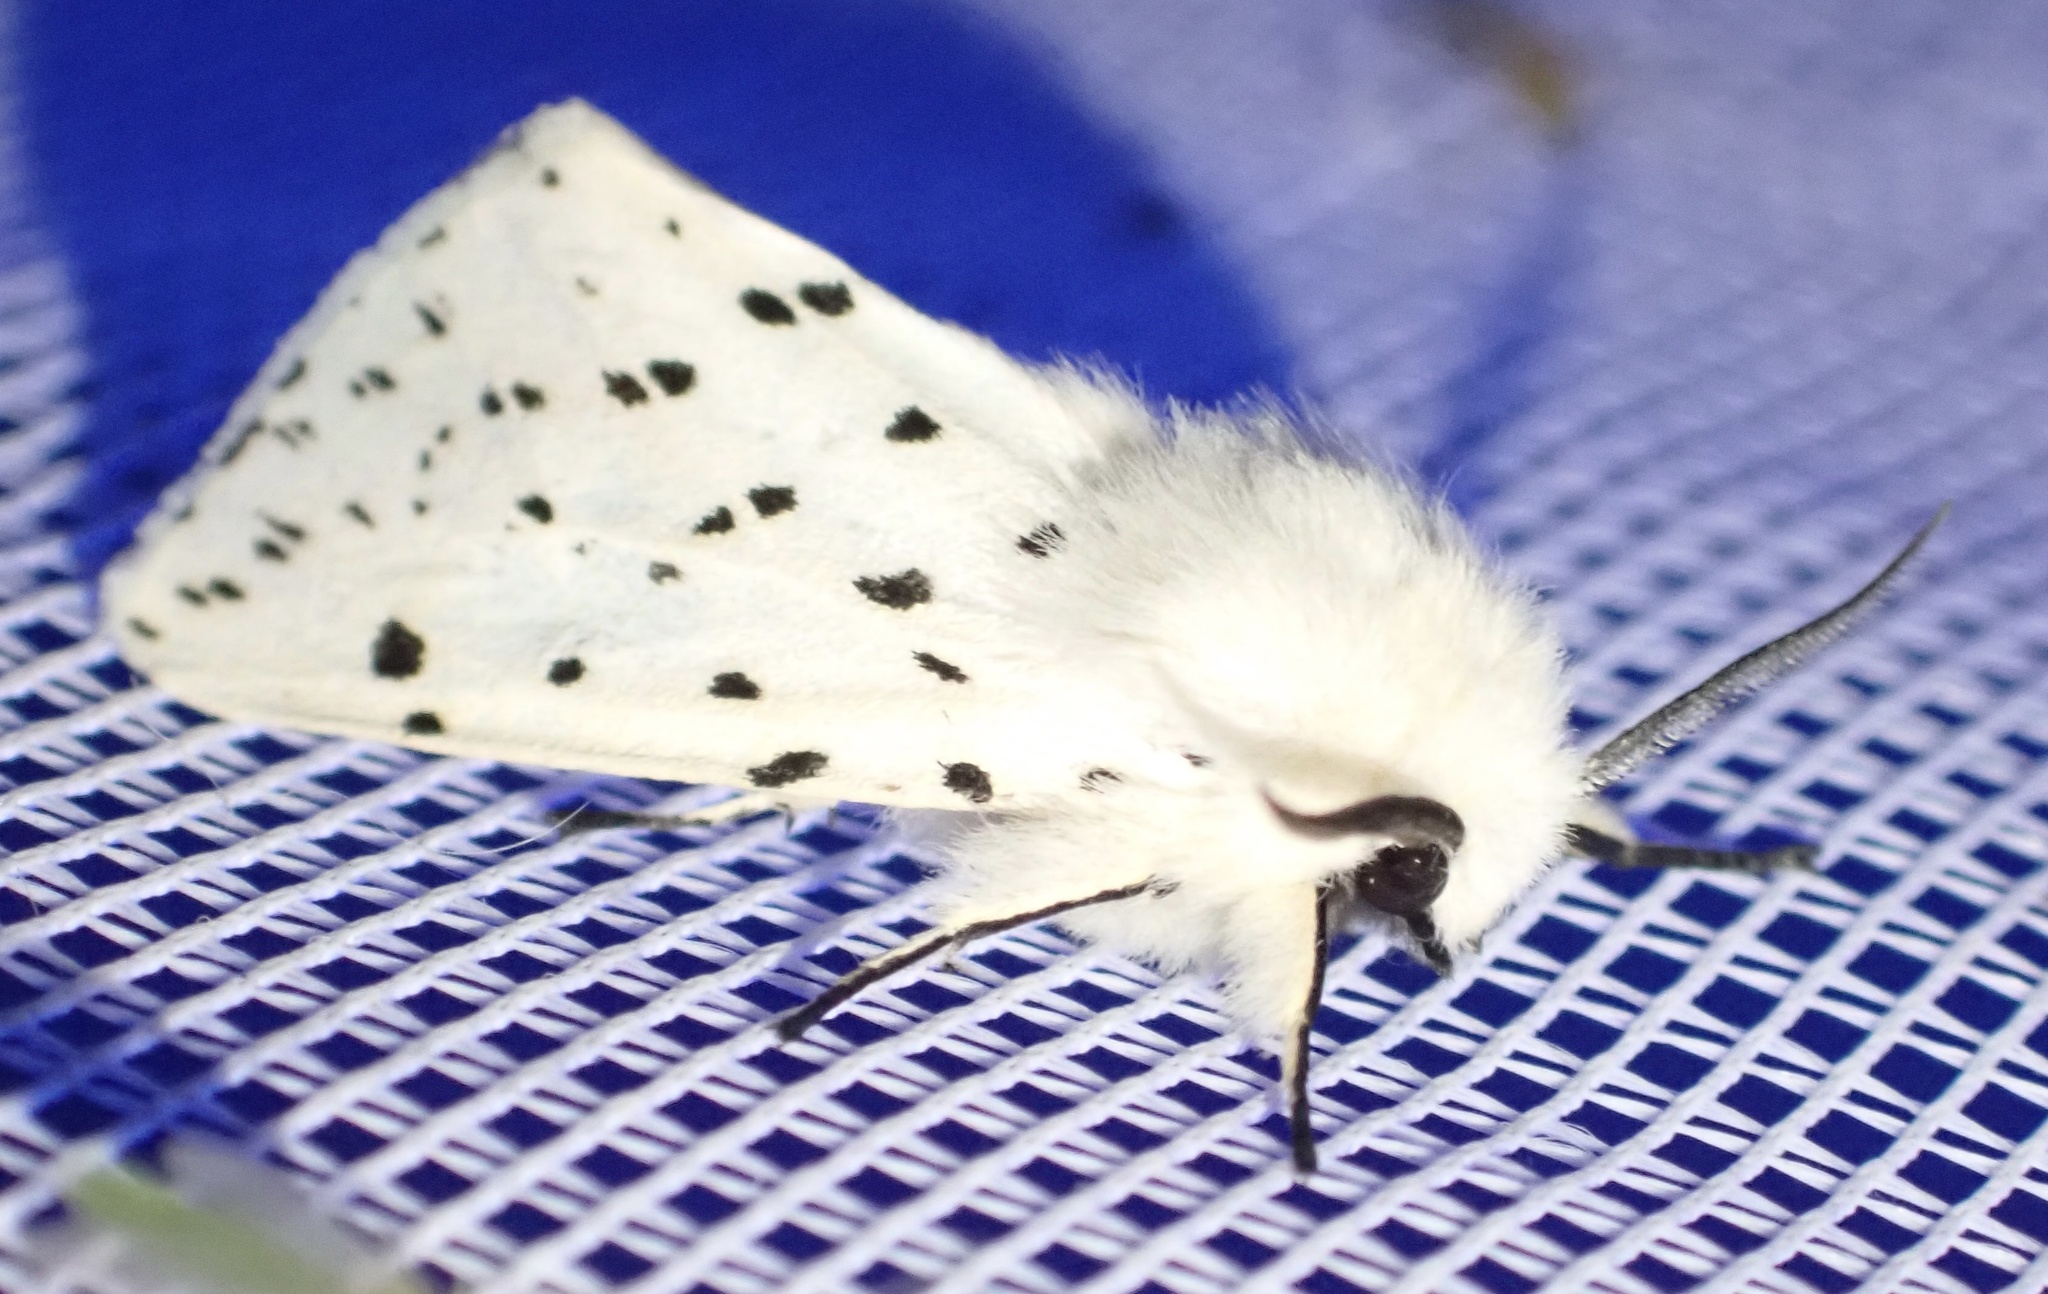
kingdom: Animalia
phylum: Arthropoda
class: Insecta
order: Lepidoptera
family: Erebidae
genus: Spilosoma
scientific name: Spilosoma lubricipeda
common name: White ermine
